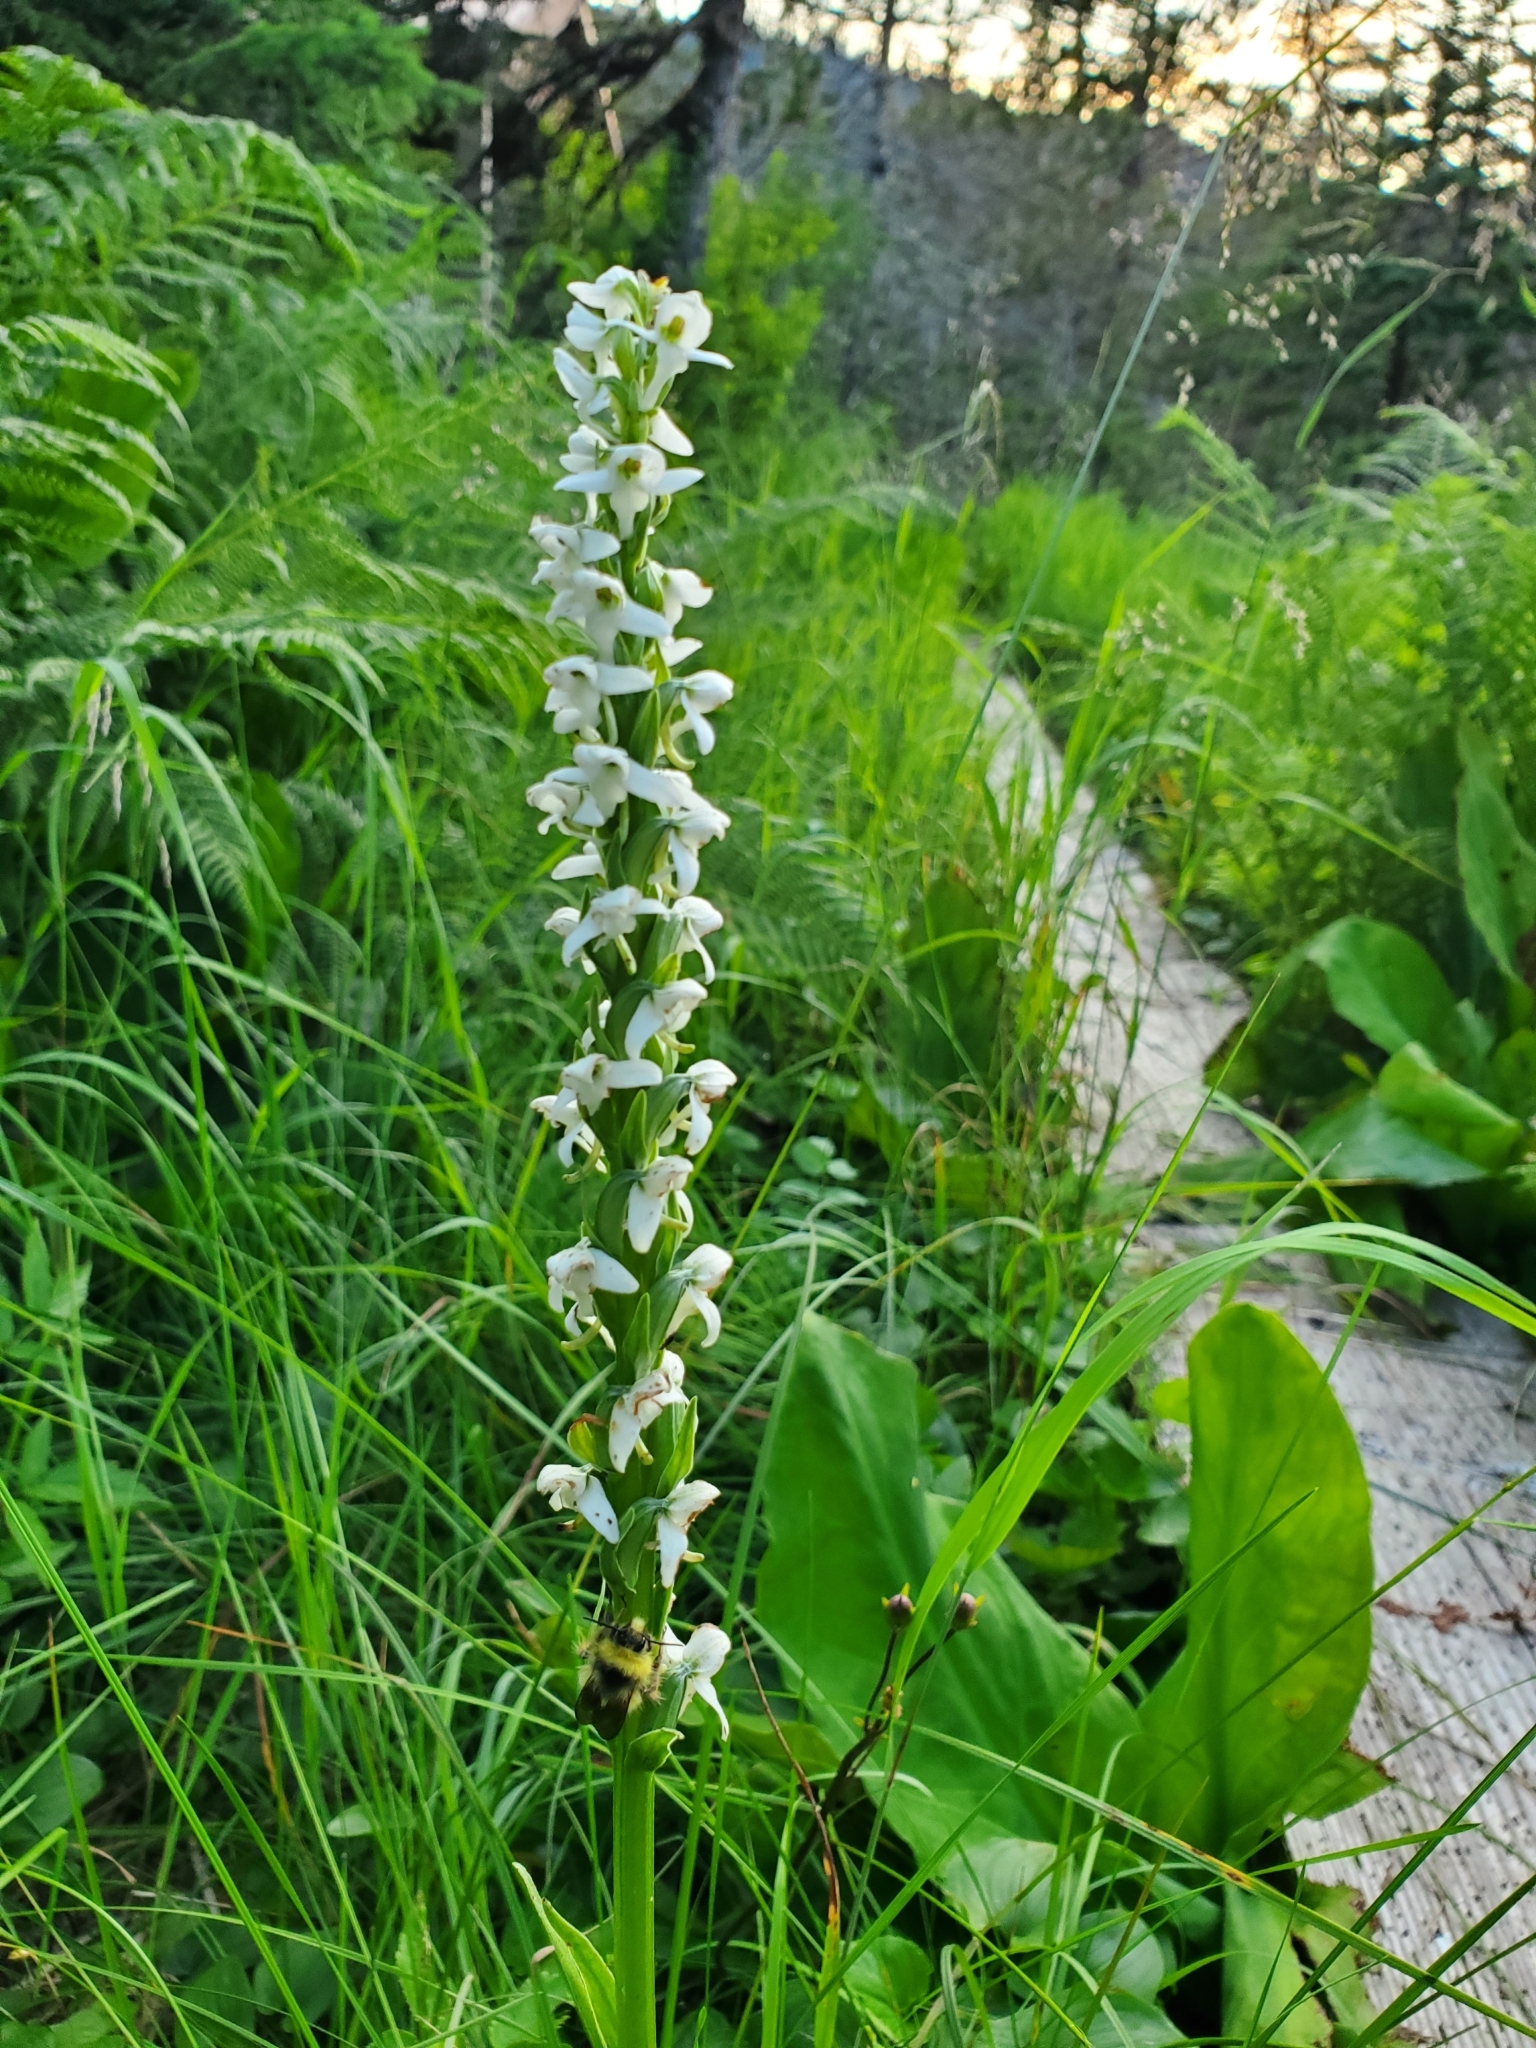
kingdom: Plantae
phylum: Tracheophyta
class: Liliopsida
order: Asparagales
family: Orchidaceae
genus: Platanthera
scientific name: Platanthera dilatata
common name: Bog candles
